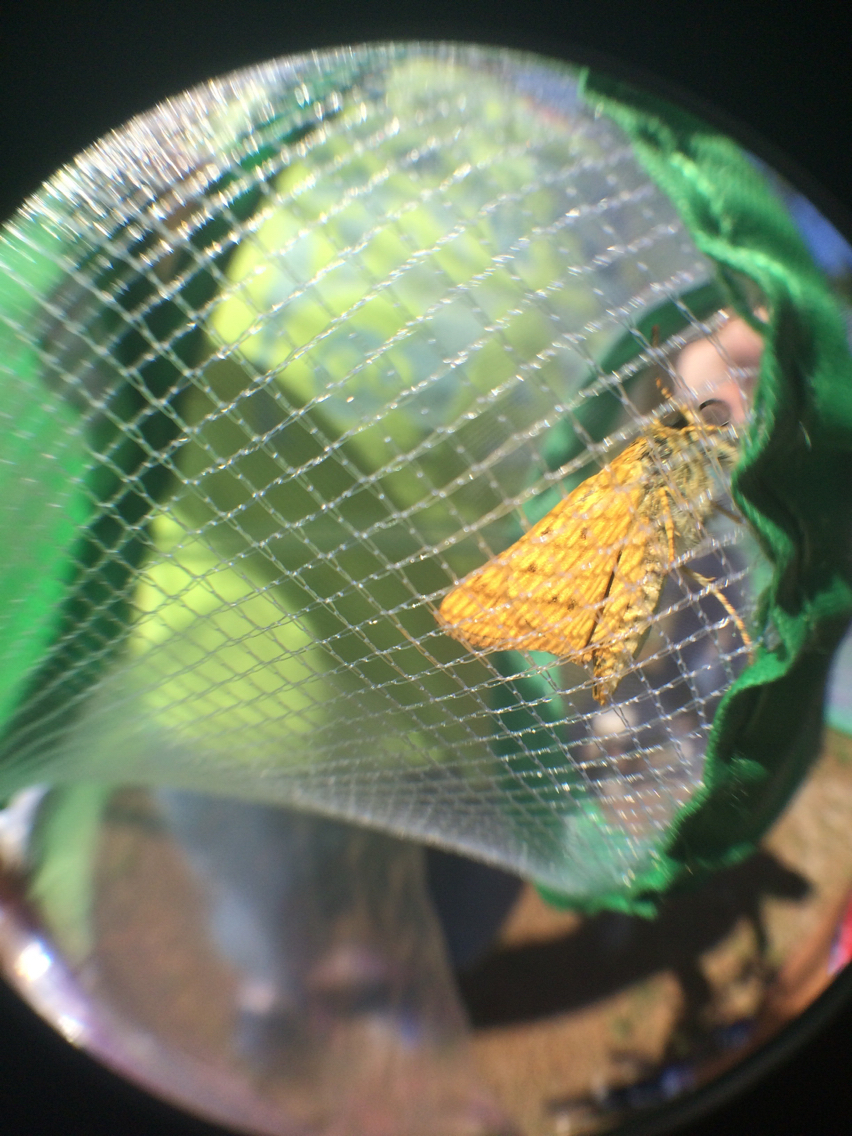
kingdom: Animalia
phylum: Arthropoda
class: Insecta
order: Lepidoptera
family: Hesperiidae
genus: Hylephila
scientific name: Hylephila phyleus
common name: Fiery skipper
